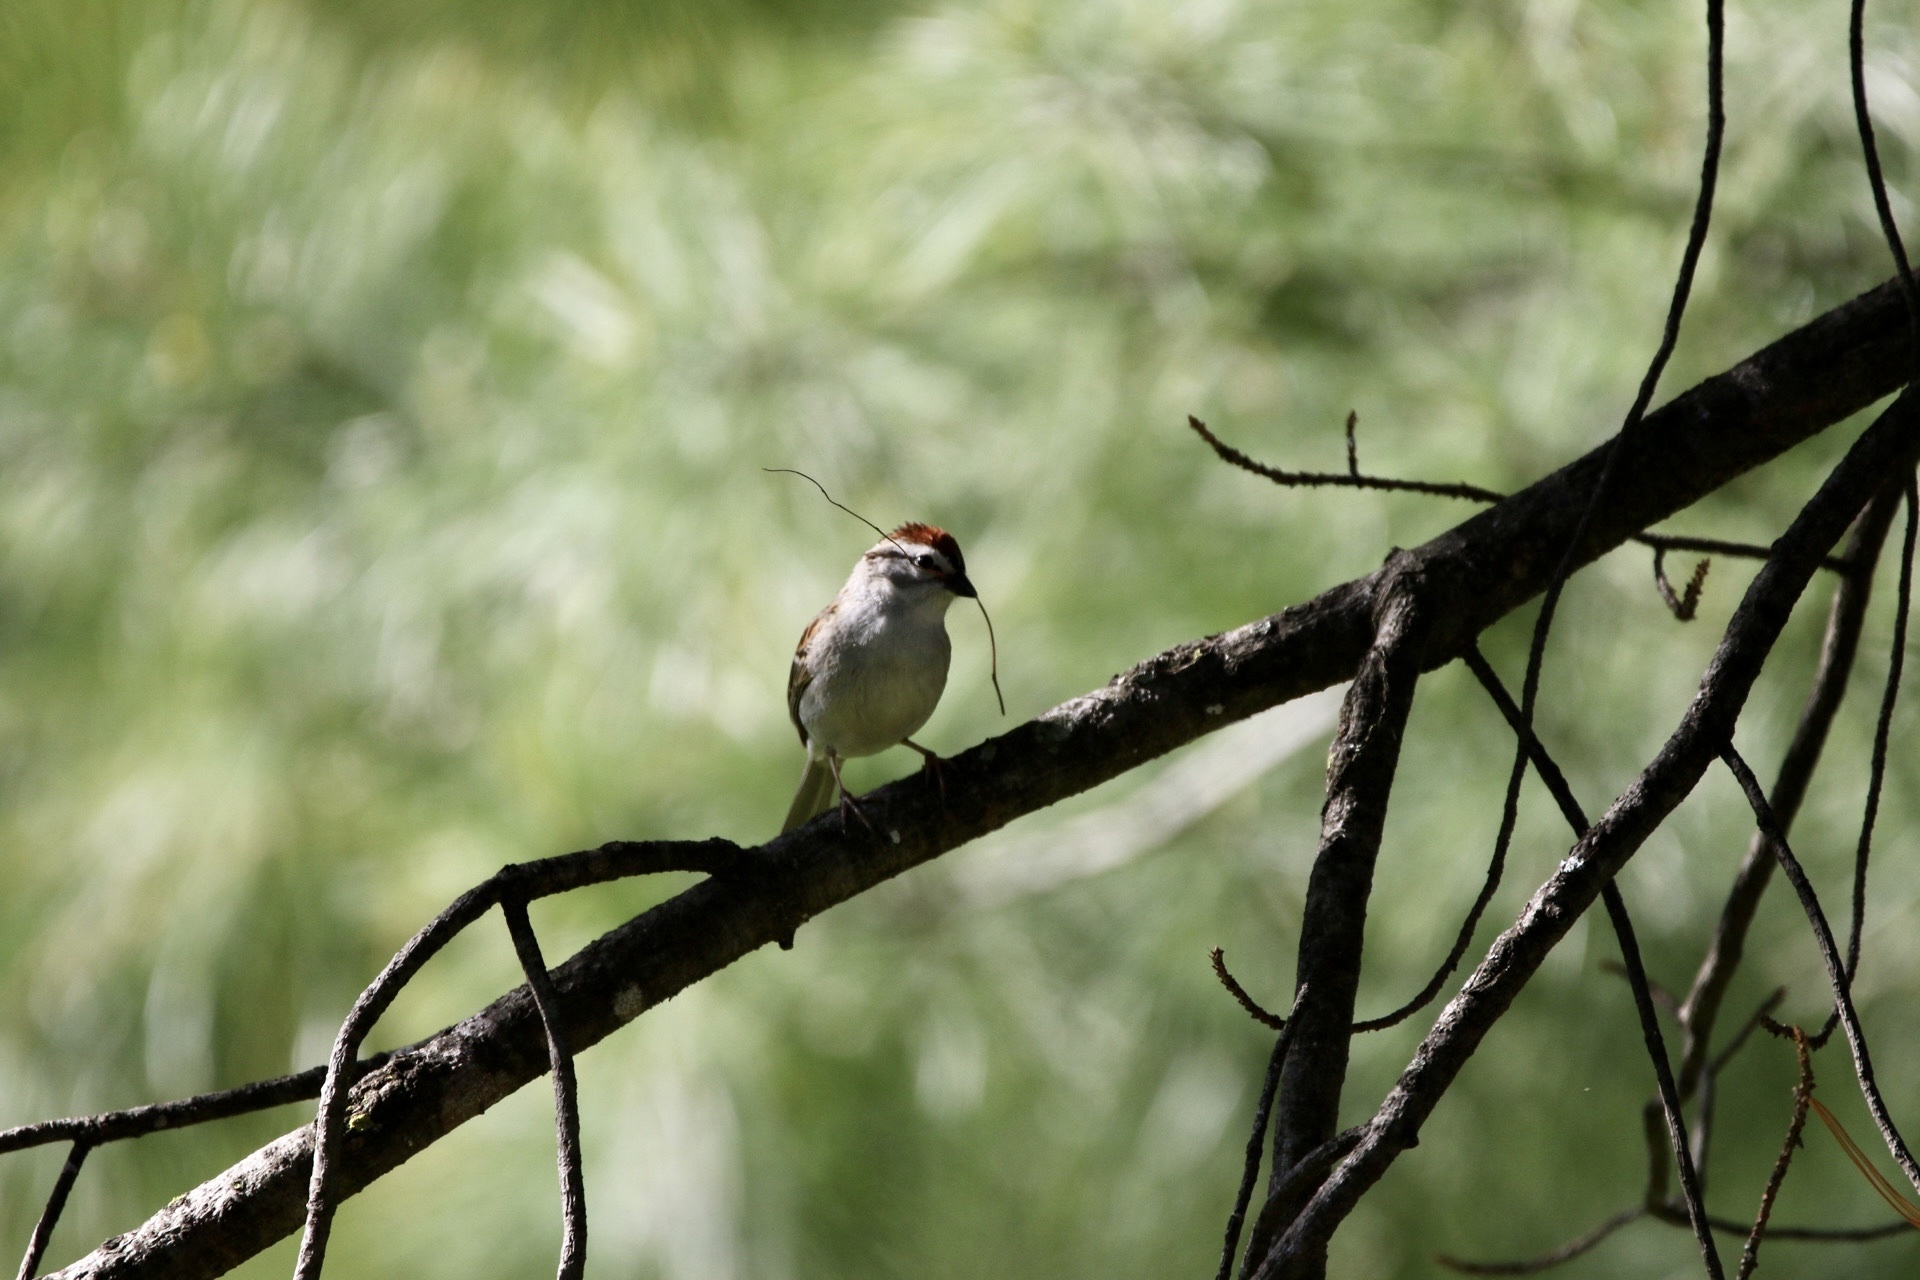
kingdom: Animalia
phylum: Chordata
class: Aves
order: Passeriformes
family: Passerellidae
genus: Spizella
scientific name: Spizella passerina
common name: Chipping sparrow
